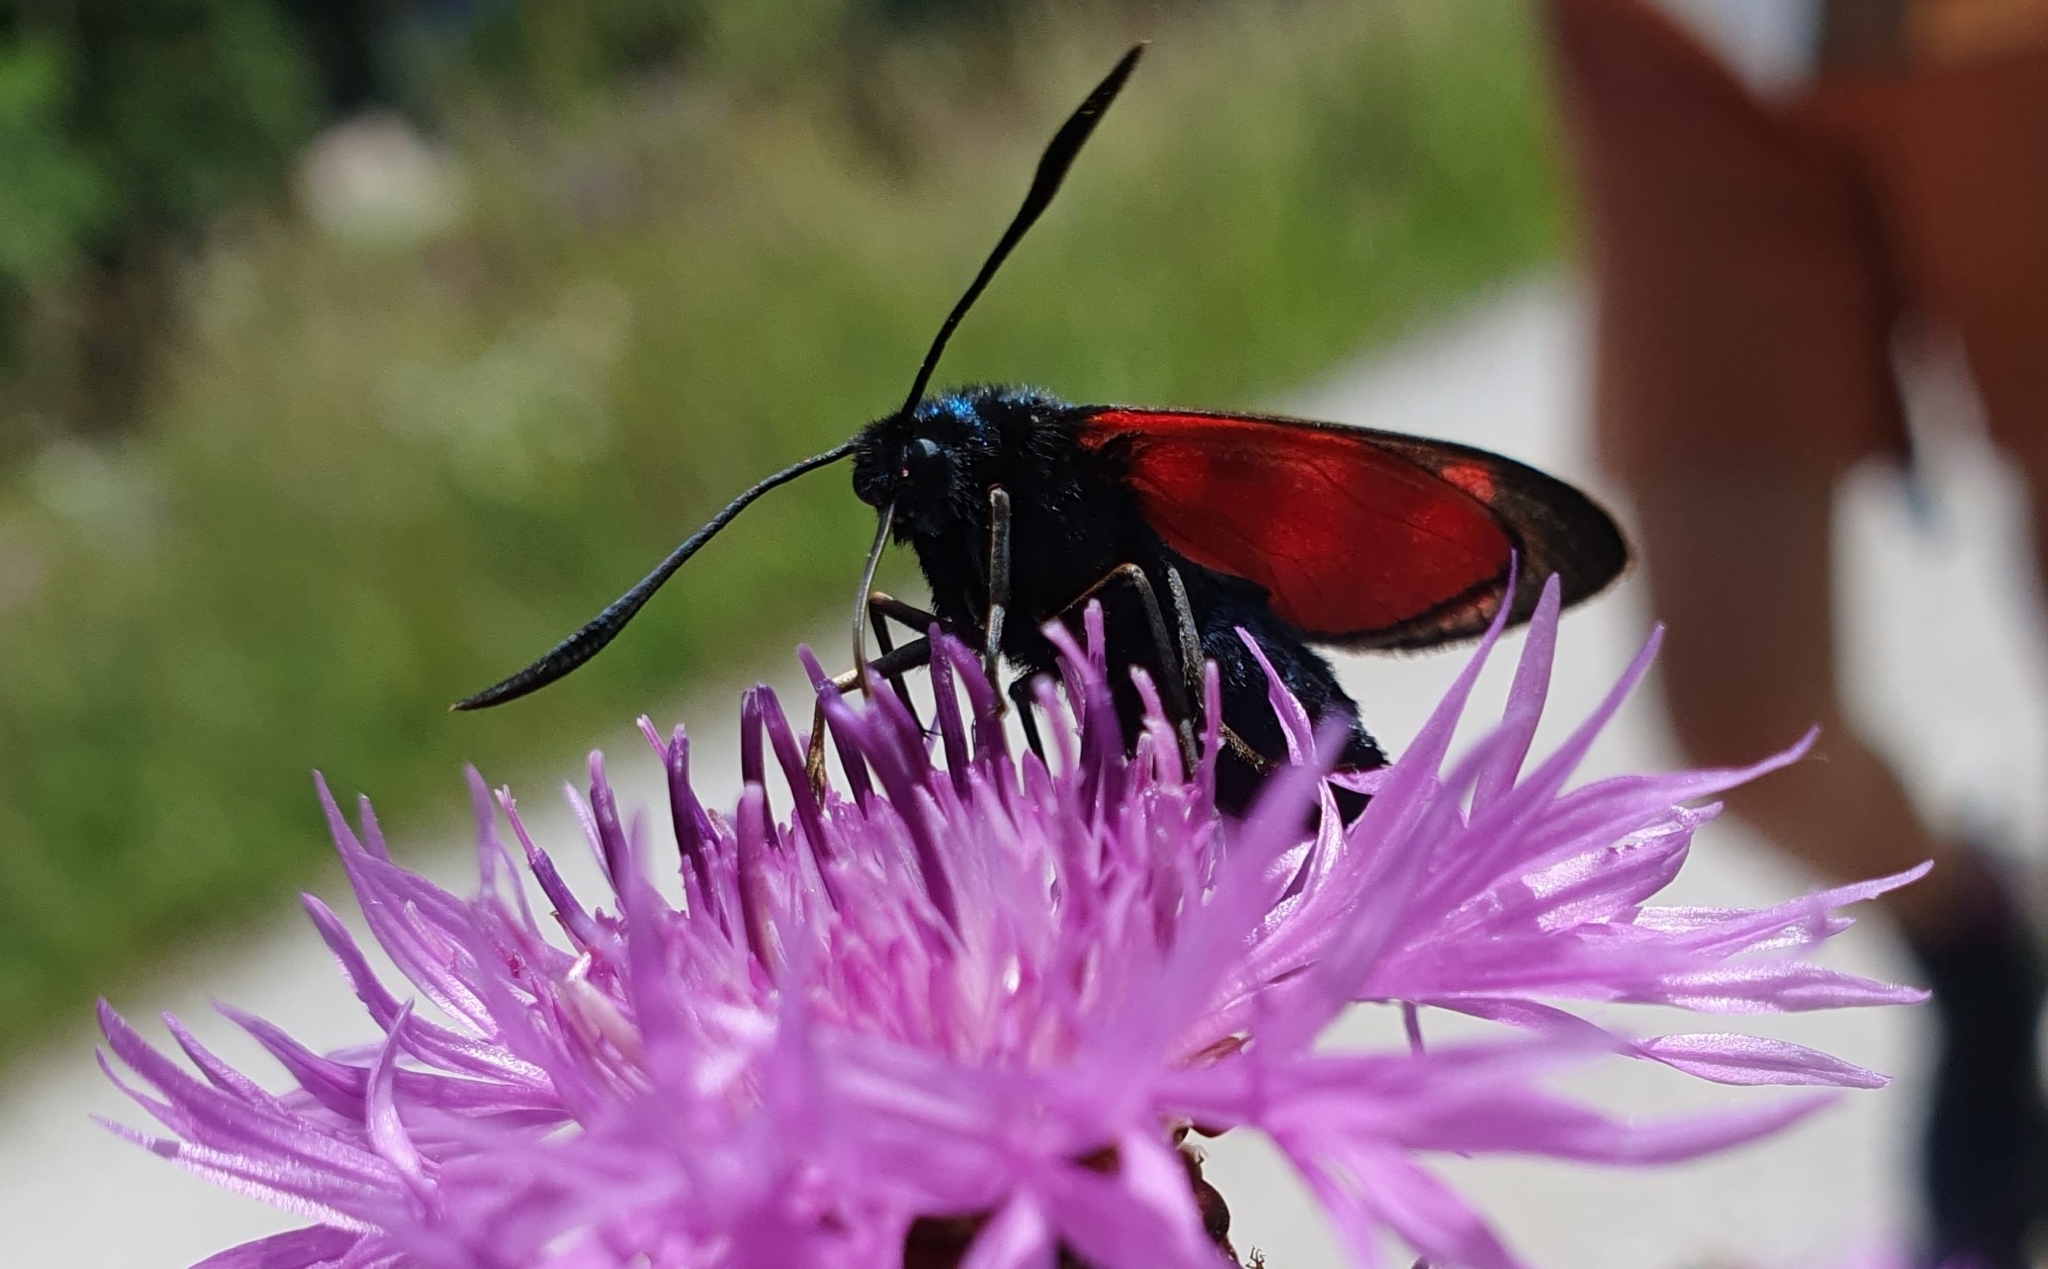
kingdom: Animalia
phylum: Arthropoda
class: Insecta
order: Lepidoptera
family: Zygaenidae
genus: Zygaena
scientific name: Zygaena filipendulae
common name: Six-spot burnet
